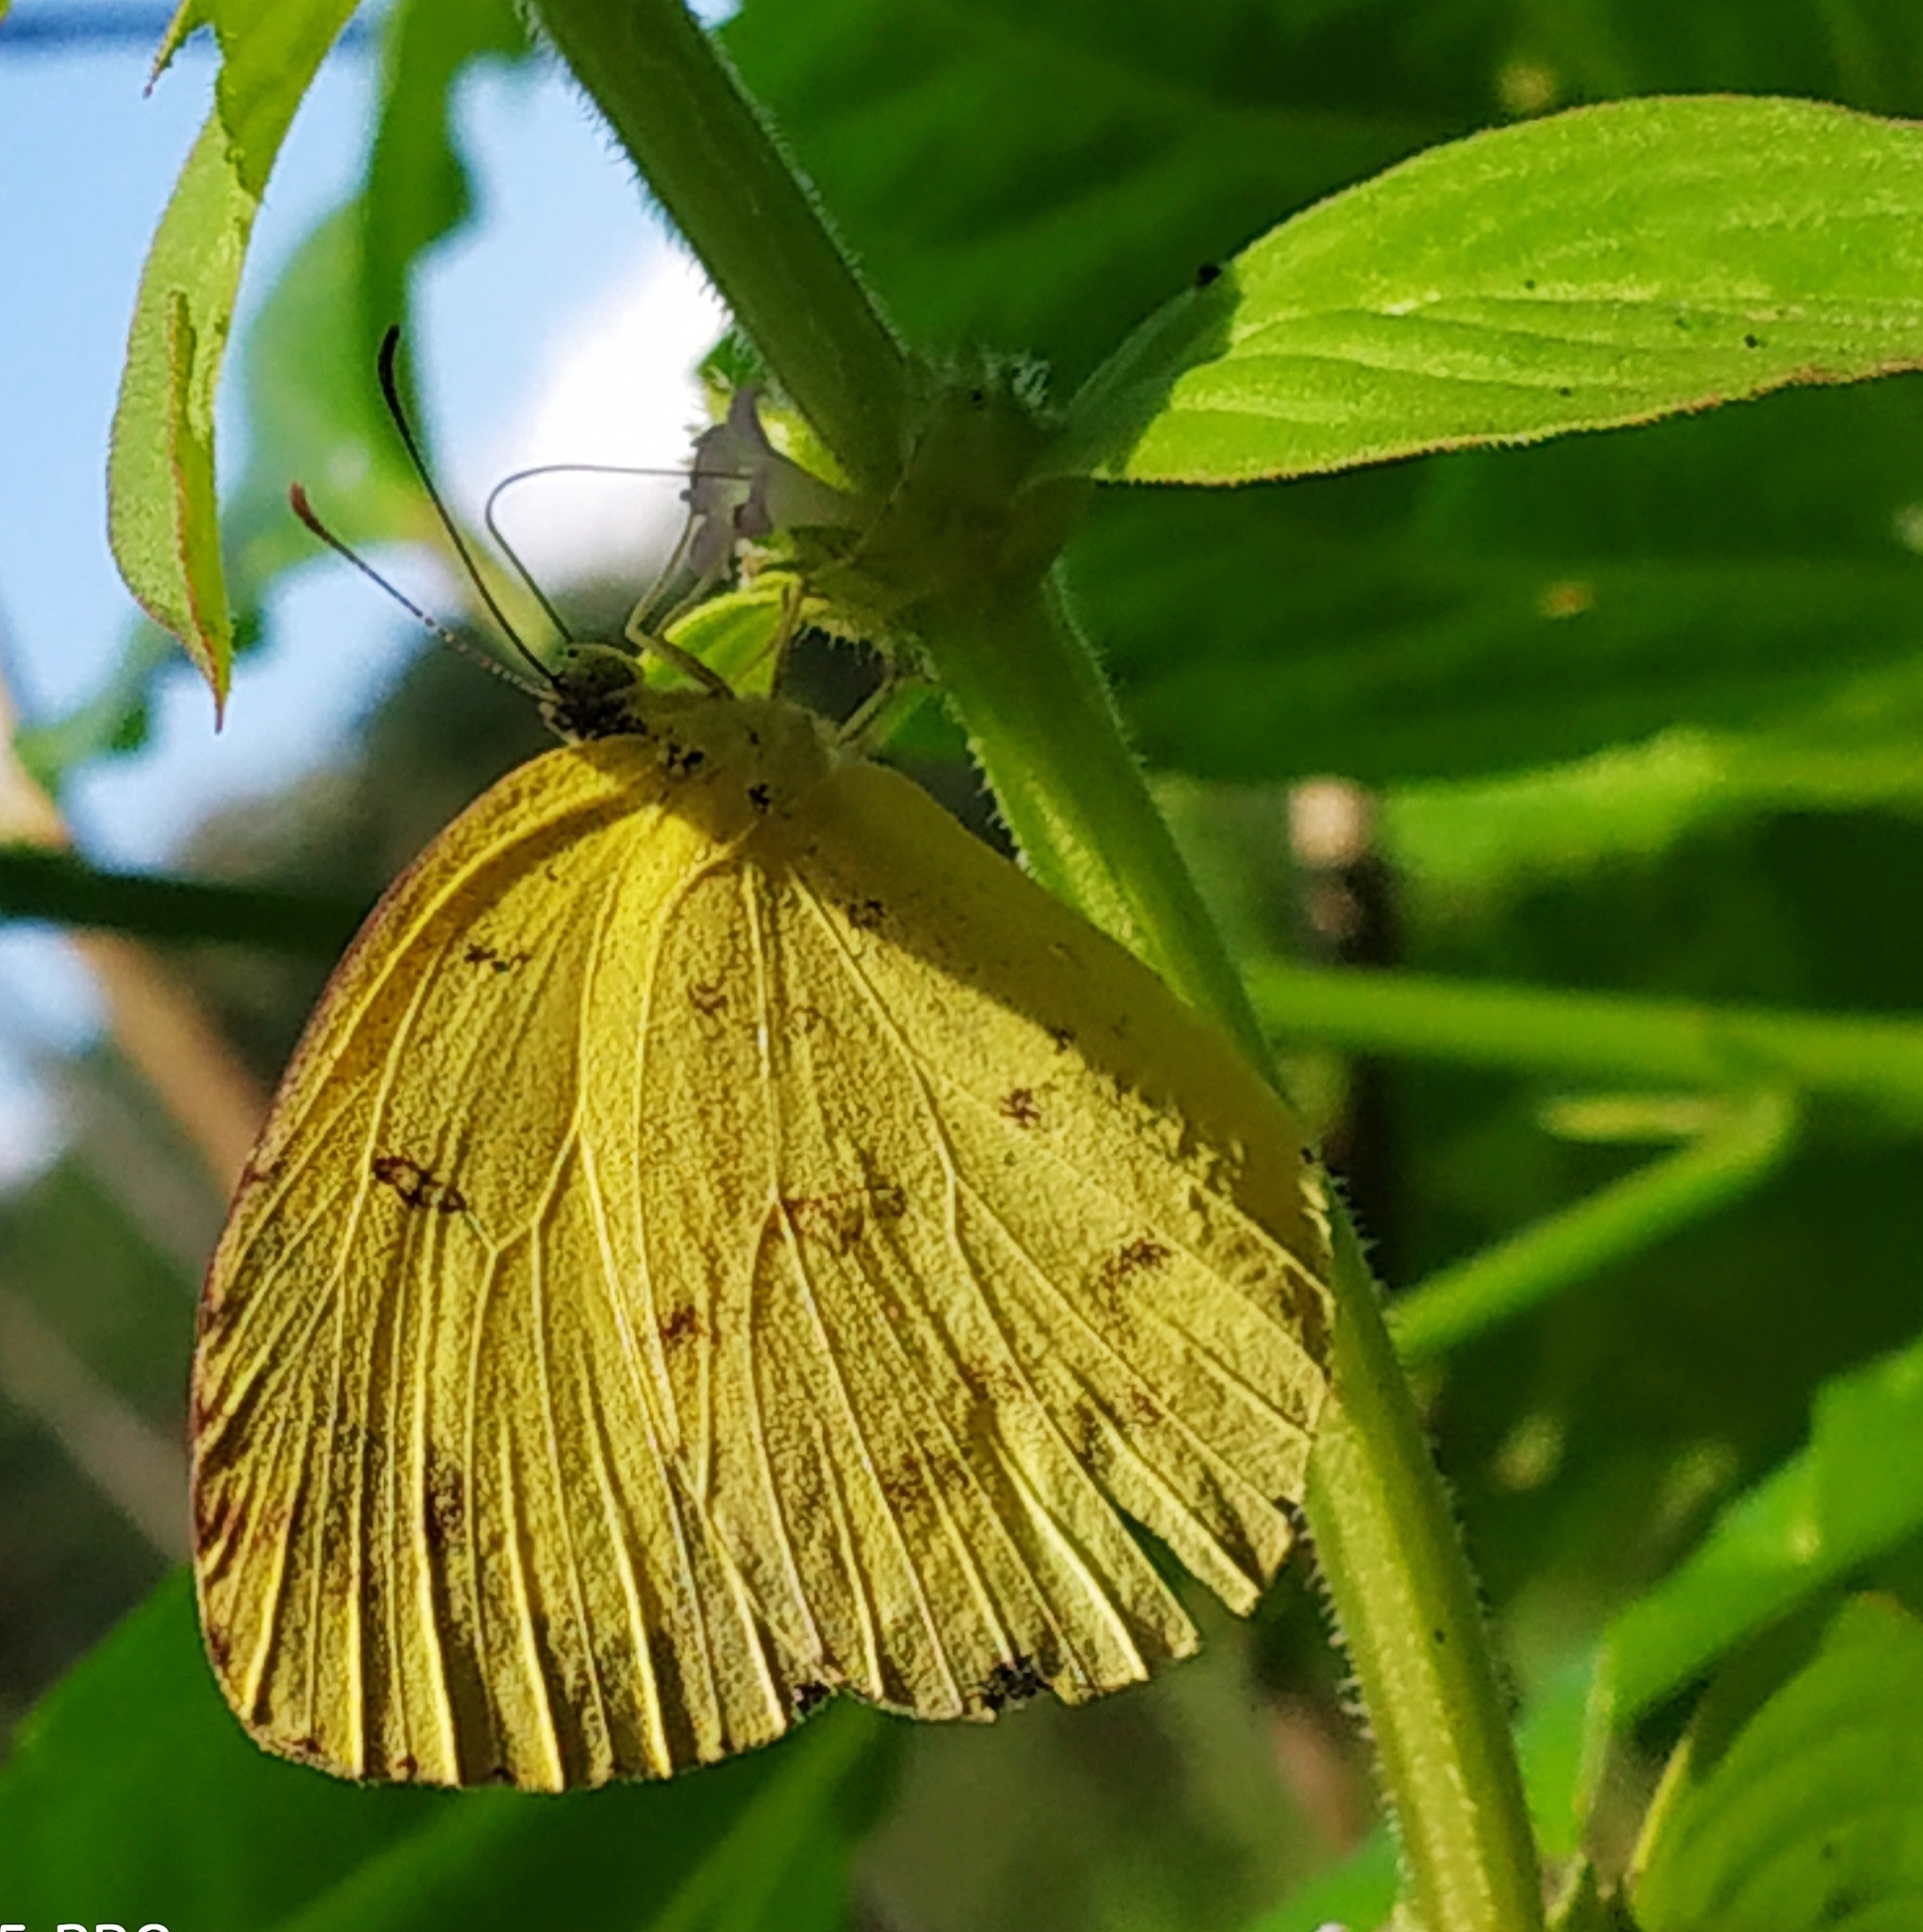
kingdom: Animalia
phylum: Arthropoda
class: Insecta
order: Lepidoptera
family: Pieridae
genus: Eurema
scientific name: Eurema hecabe
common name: Pale grass yellow
